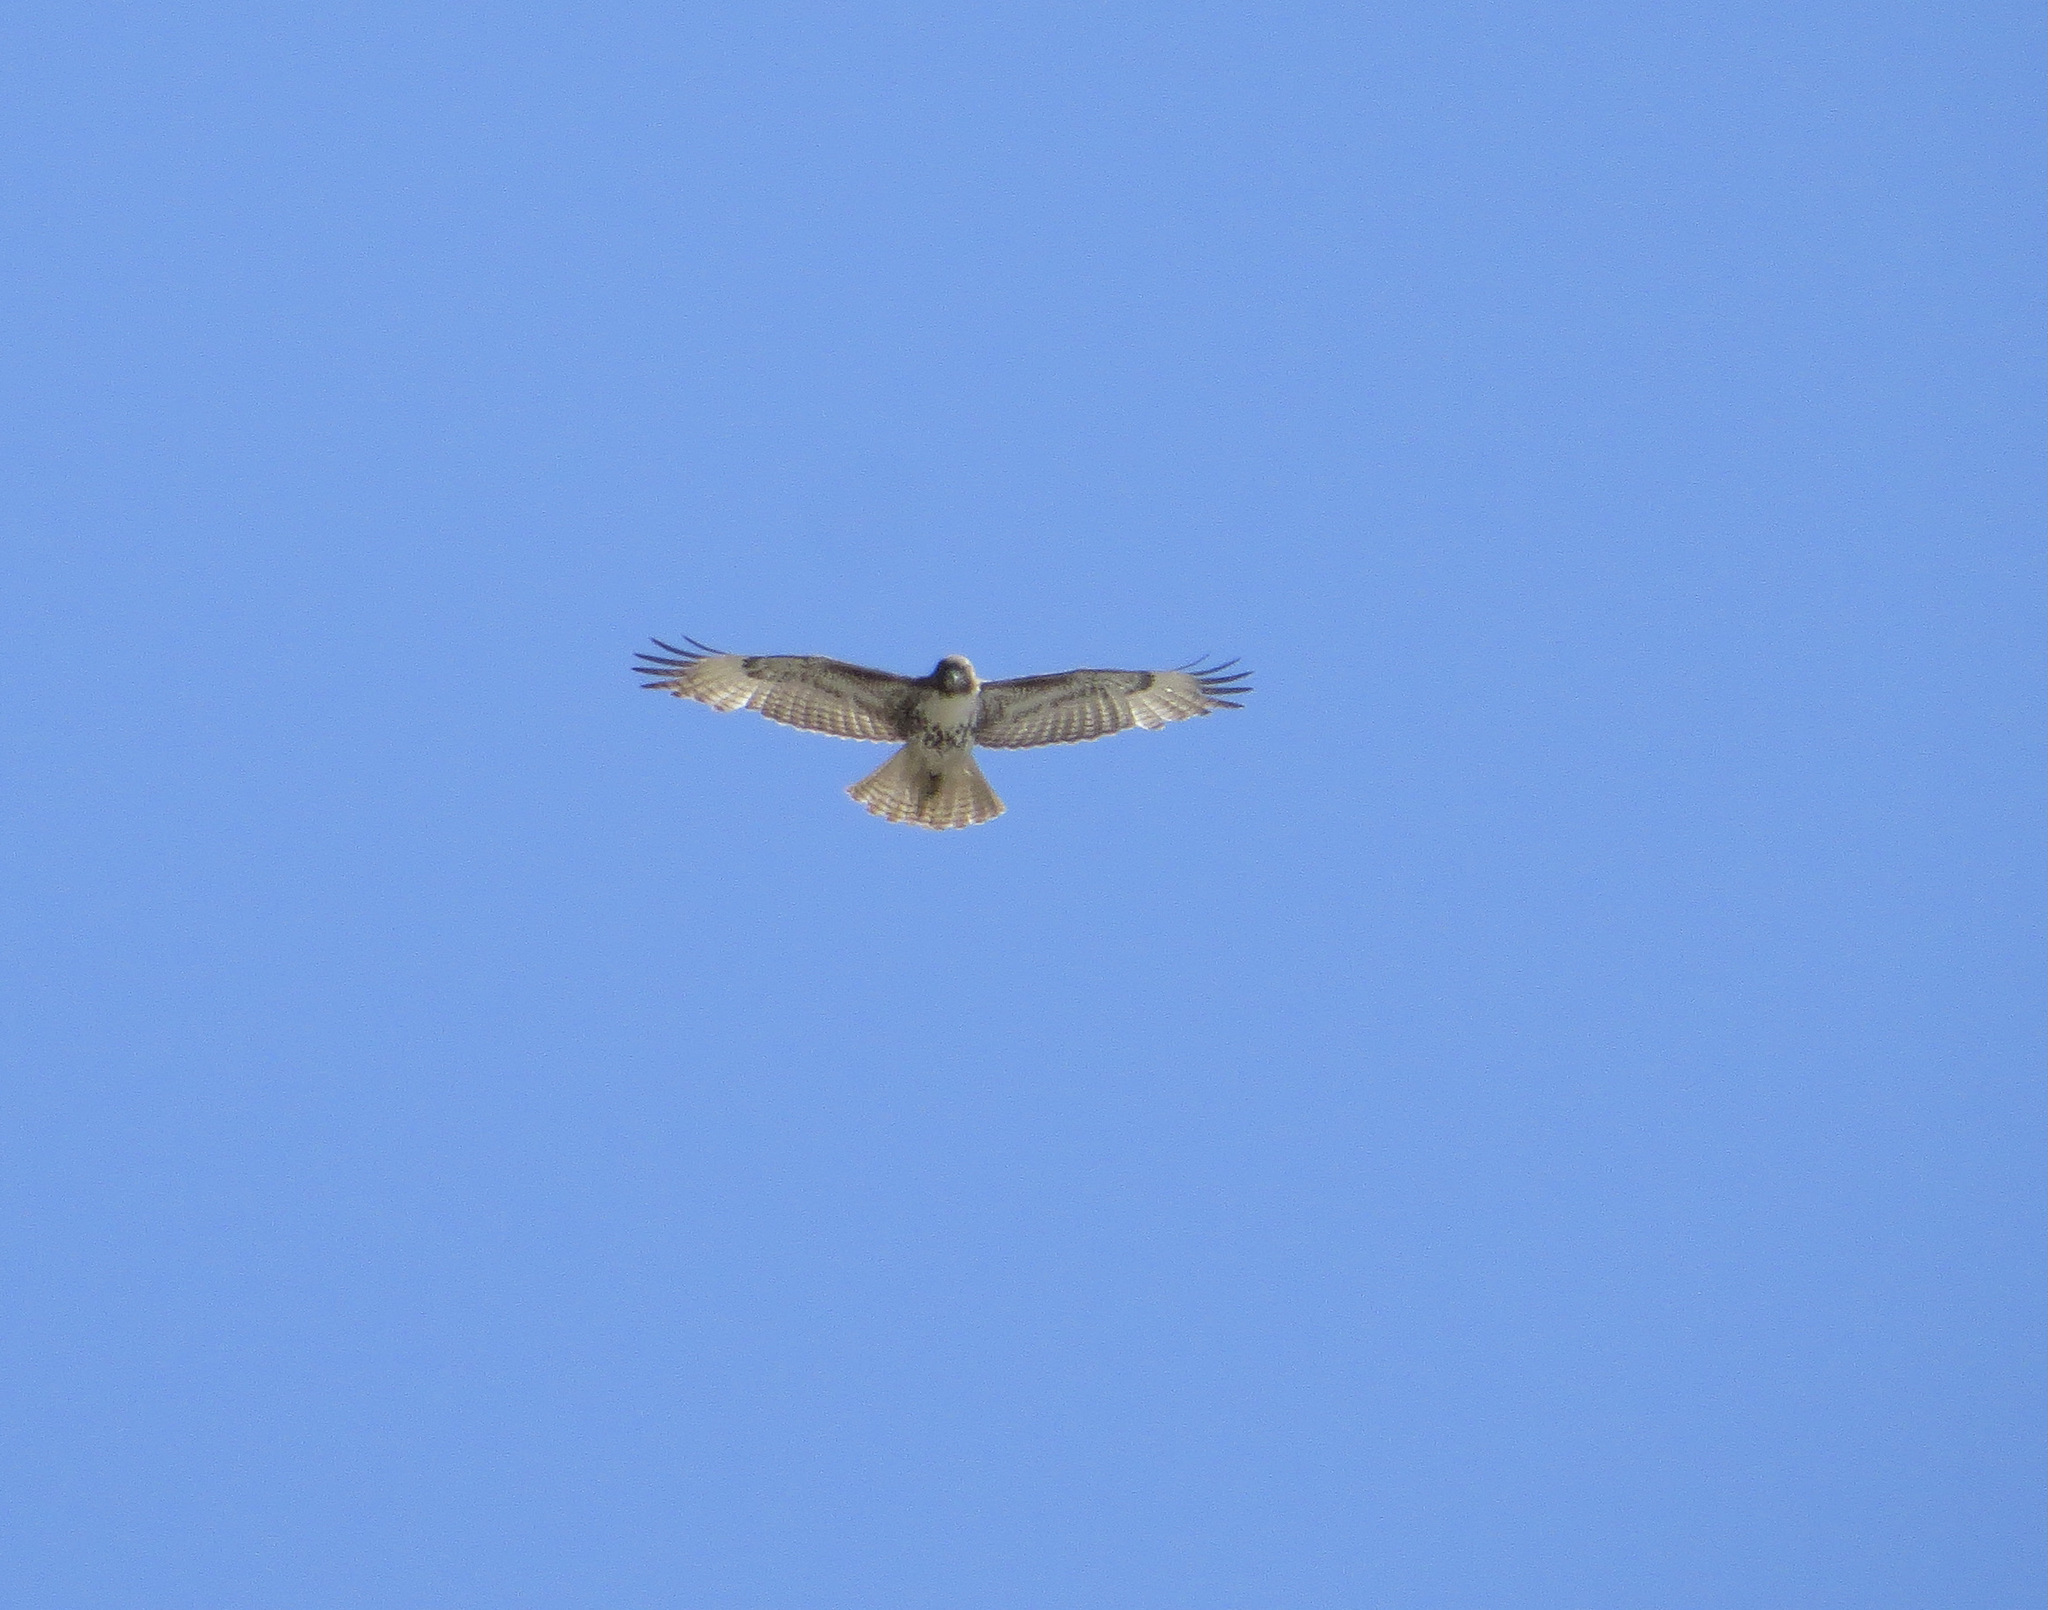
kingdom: Animalia
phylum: Chordata
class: Aves
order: Accipitriformes
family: Accipitridae
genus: Buteo
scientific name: Buteo jamaicensis
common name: Red-tailed hawk
